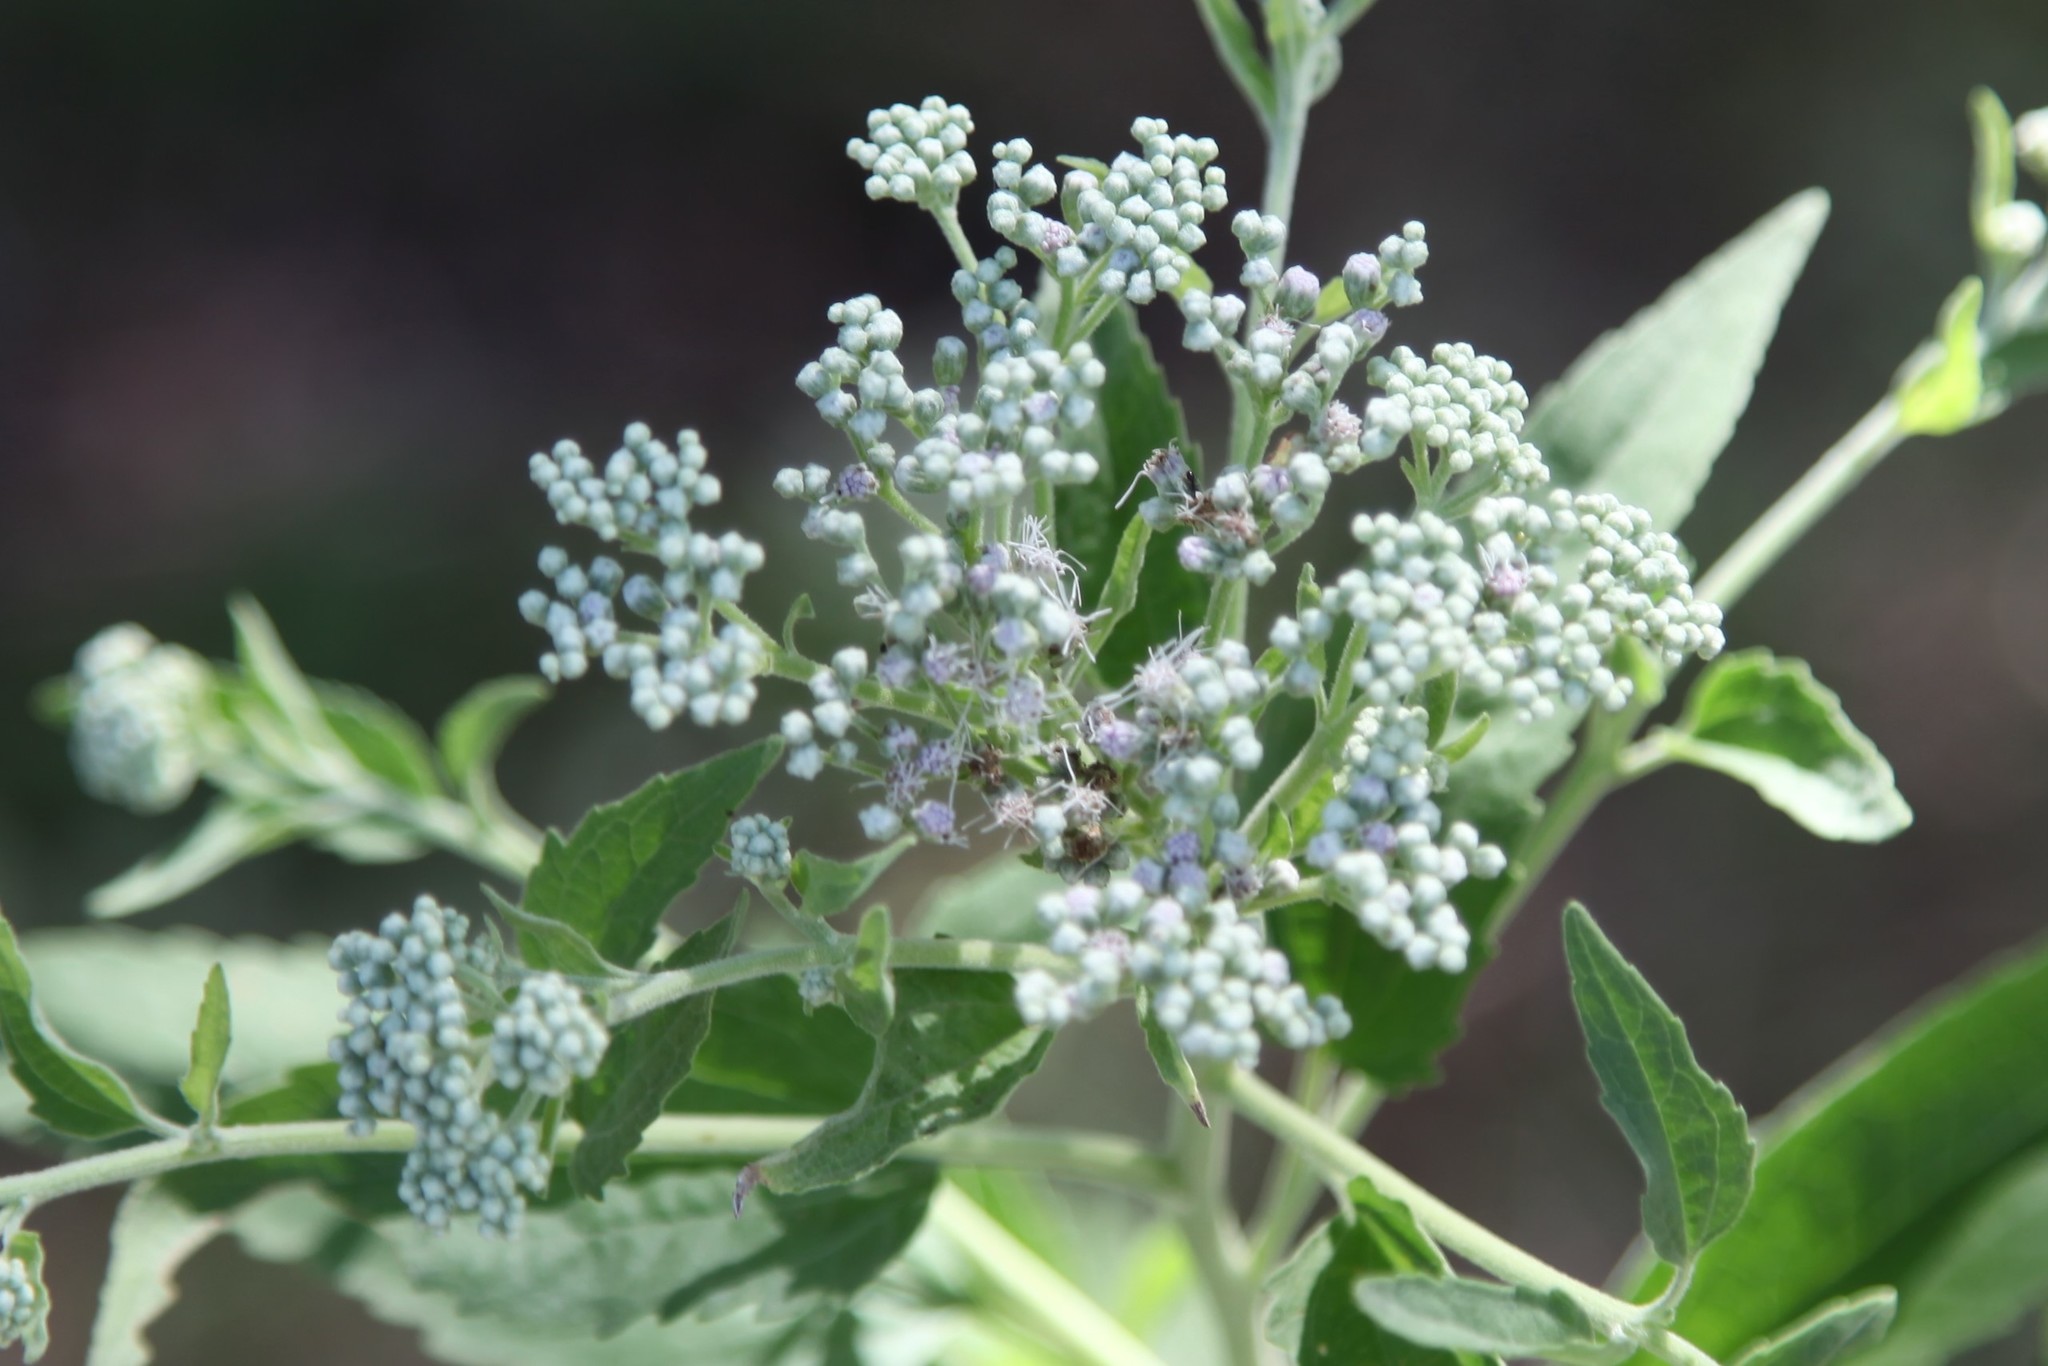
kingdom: Plantae
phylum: Tracheophyta
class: Magnoliopsida
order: Asterales
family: Asteraceae
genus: Eupatorium
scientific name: Eupatorium serotinum
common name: Late boneset
